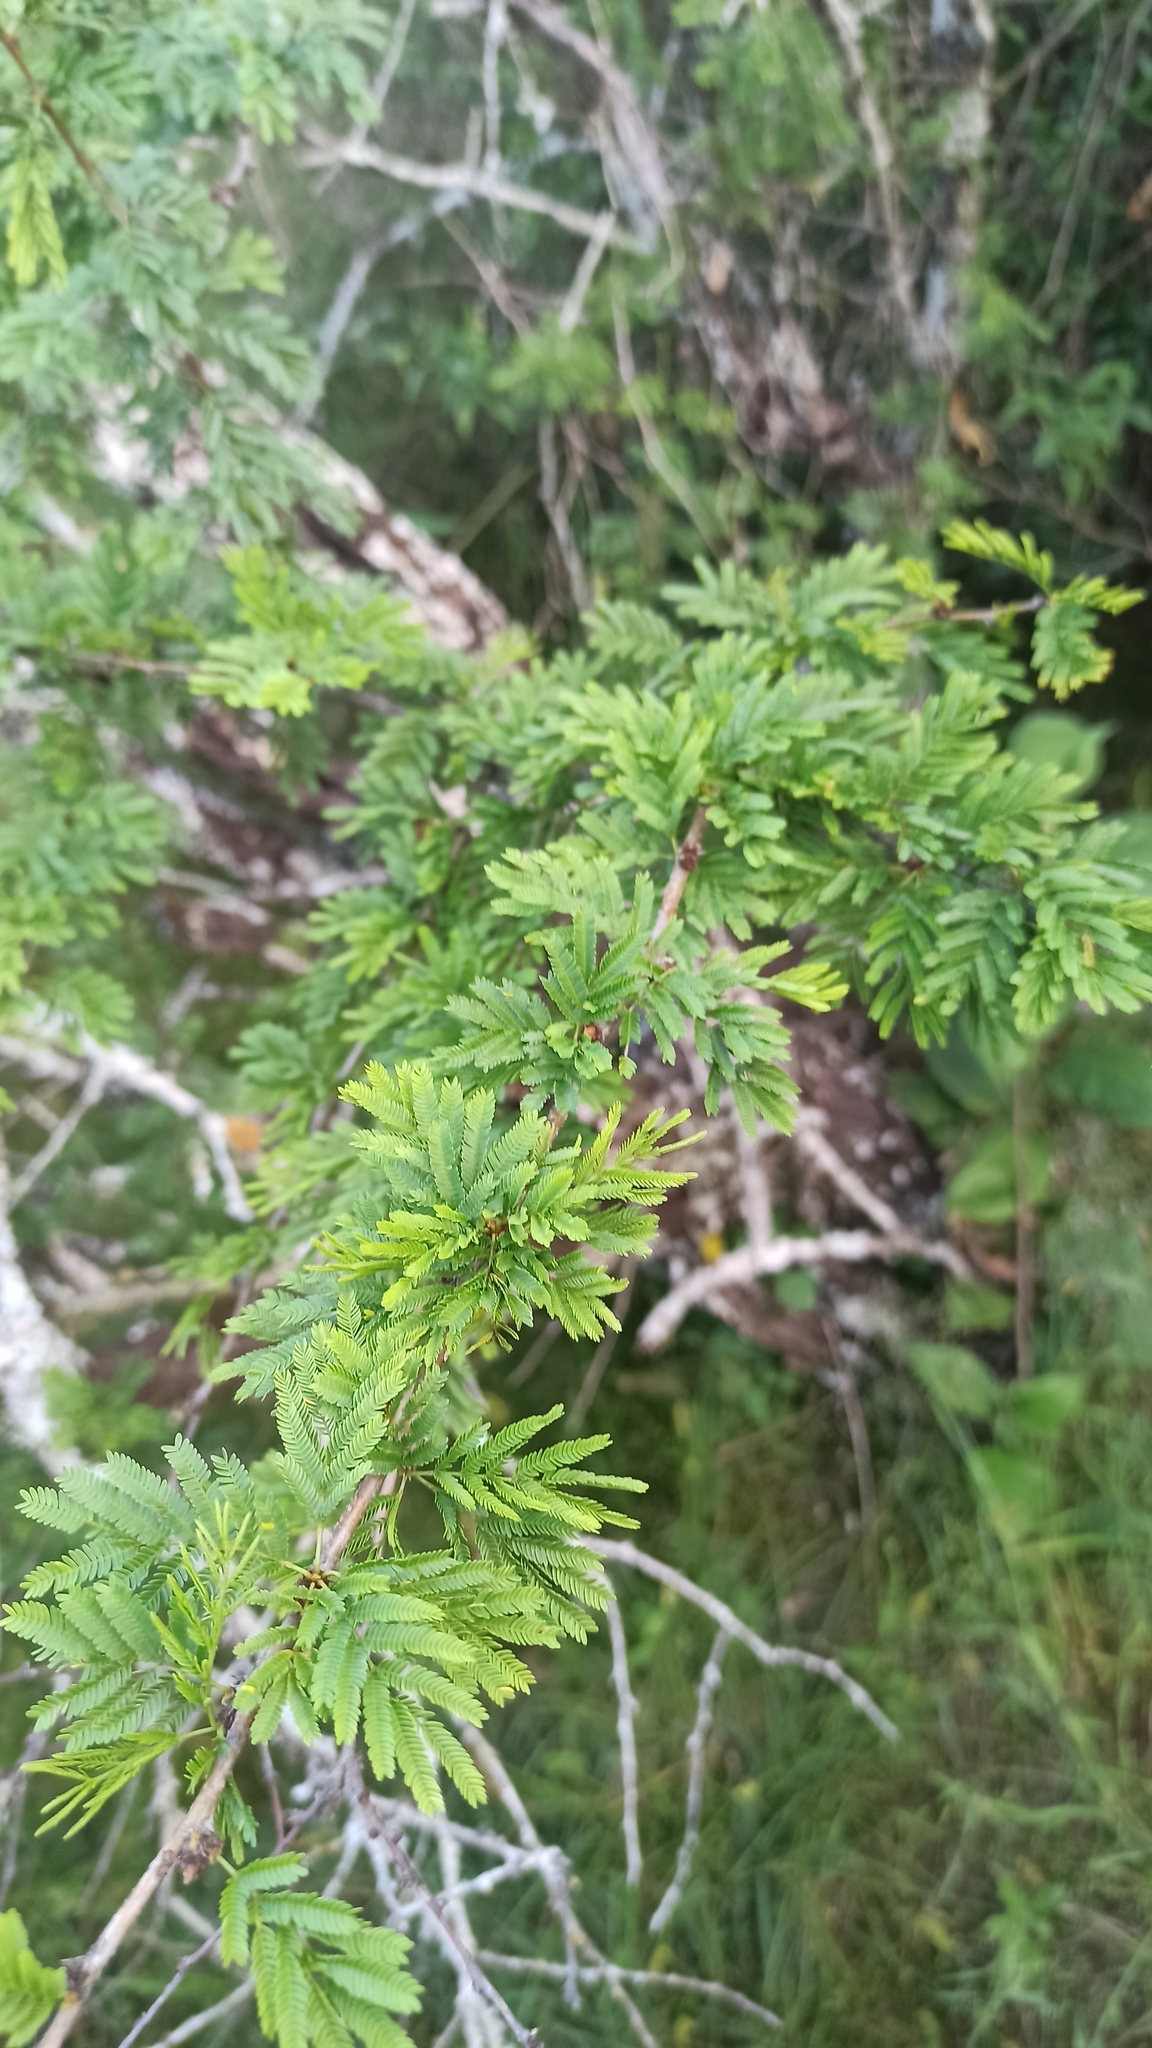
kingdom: Plantae
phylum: Tracheophyta
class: Magnoliopsida
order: Fabales
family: Fabaceae
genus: Vachellia
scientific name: Vachellia caven
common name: Roman cassie
